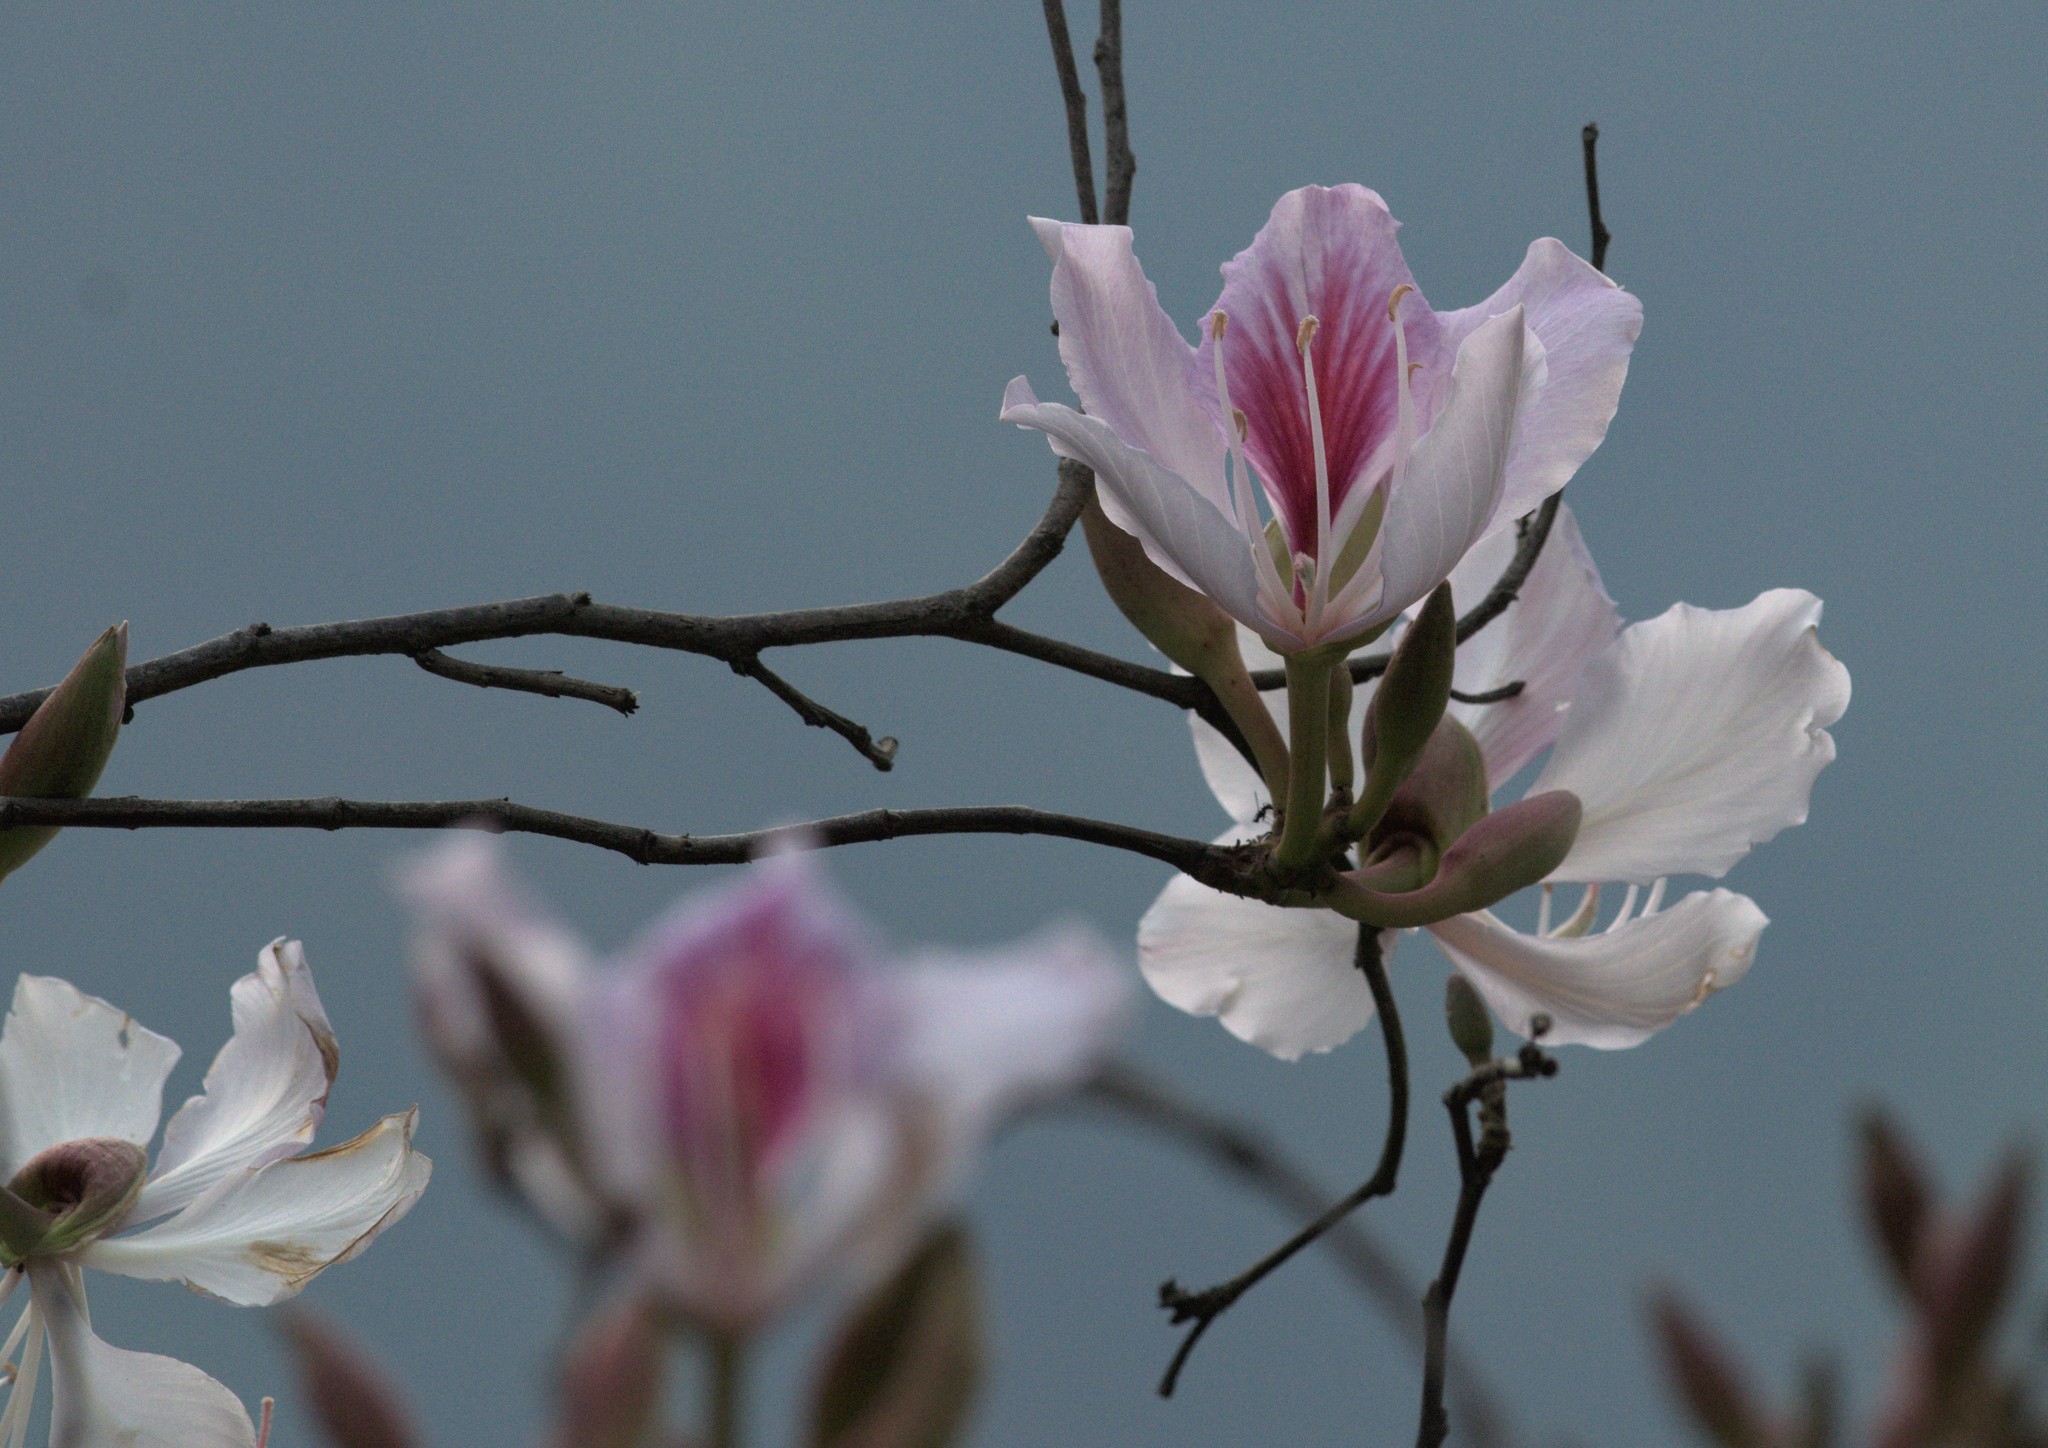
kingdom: Plantae
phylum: Tracheophyta
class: Magnoliopsida
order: Fabales
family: Fabaceae
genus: Bauhinia
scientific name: Bauhinia variegata
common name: Mountain ebony
